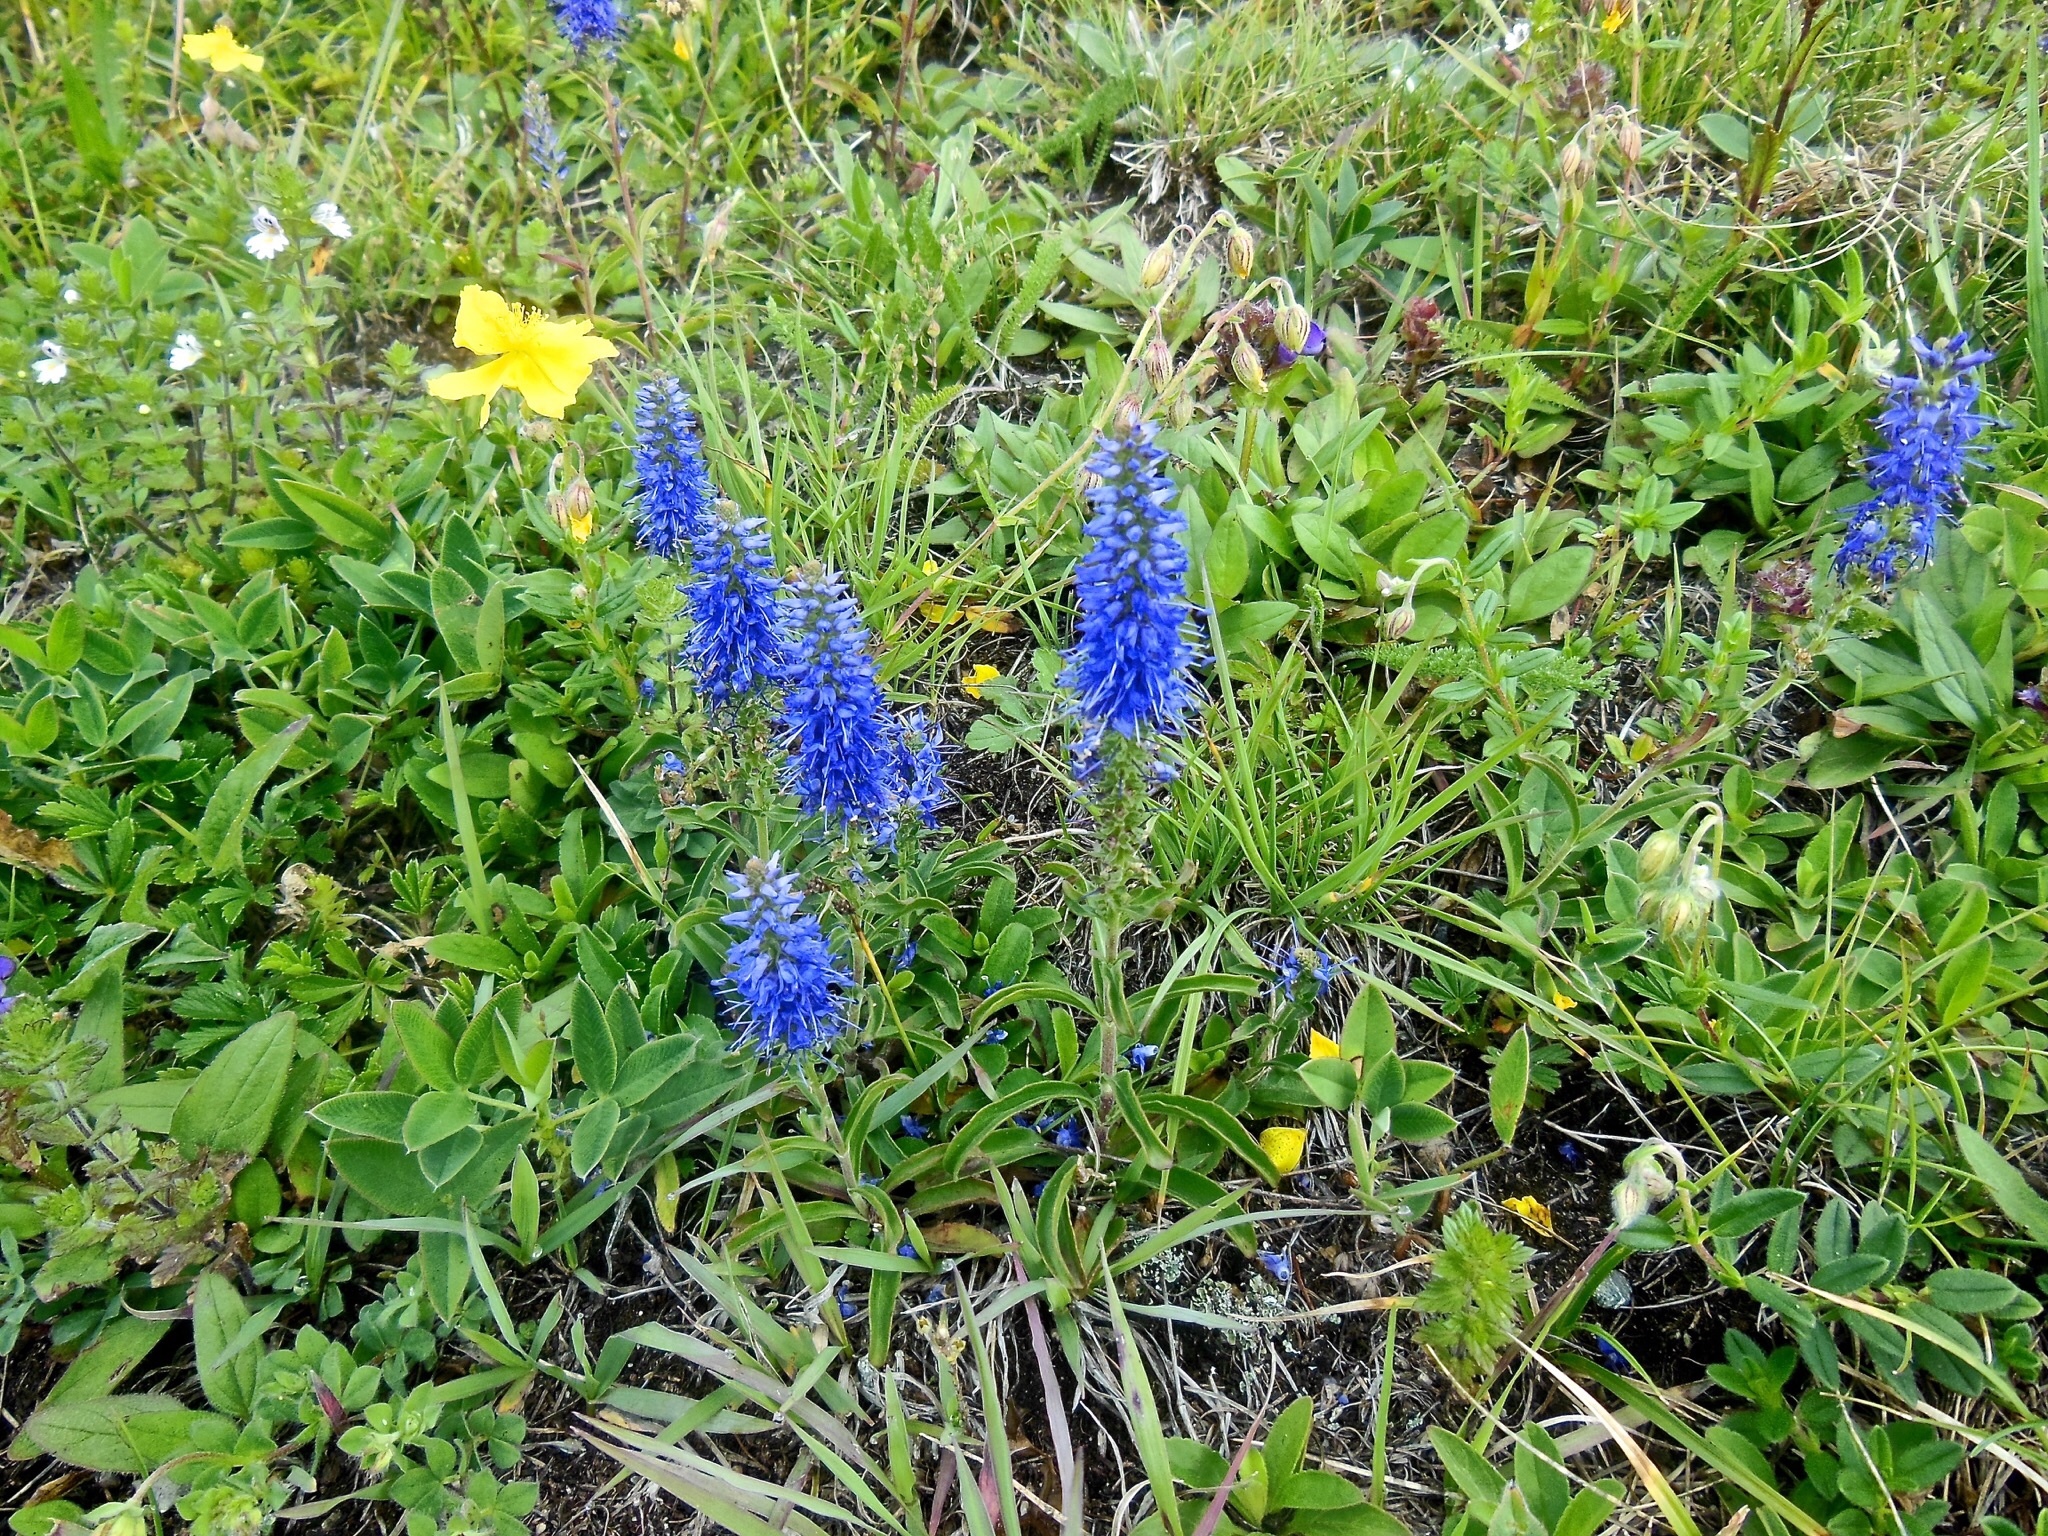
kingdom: Plantae
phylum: Tracheophyta
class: Magnoliopsida
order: Lamiales
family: Plantaginaceae
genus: Veronica
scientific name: Veronica spicata
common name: Spiked speedwell
